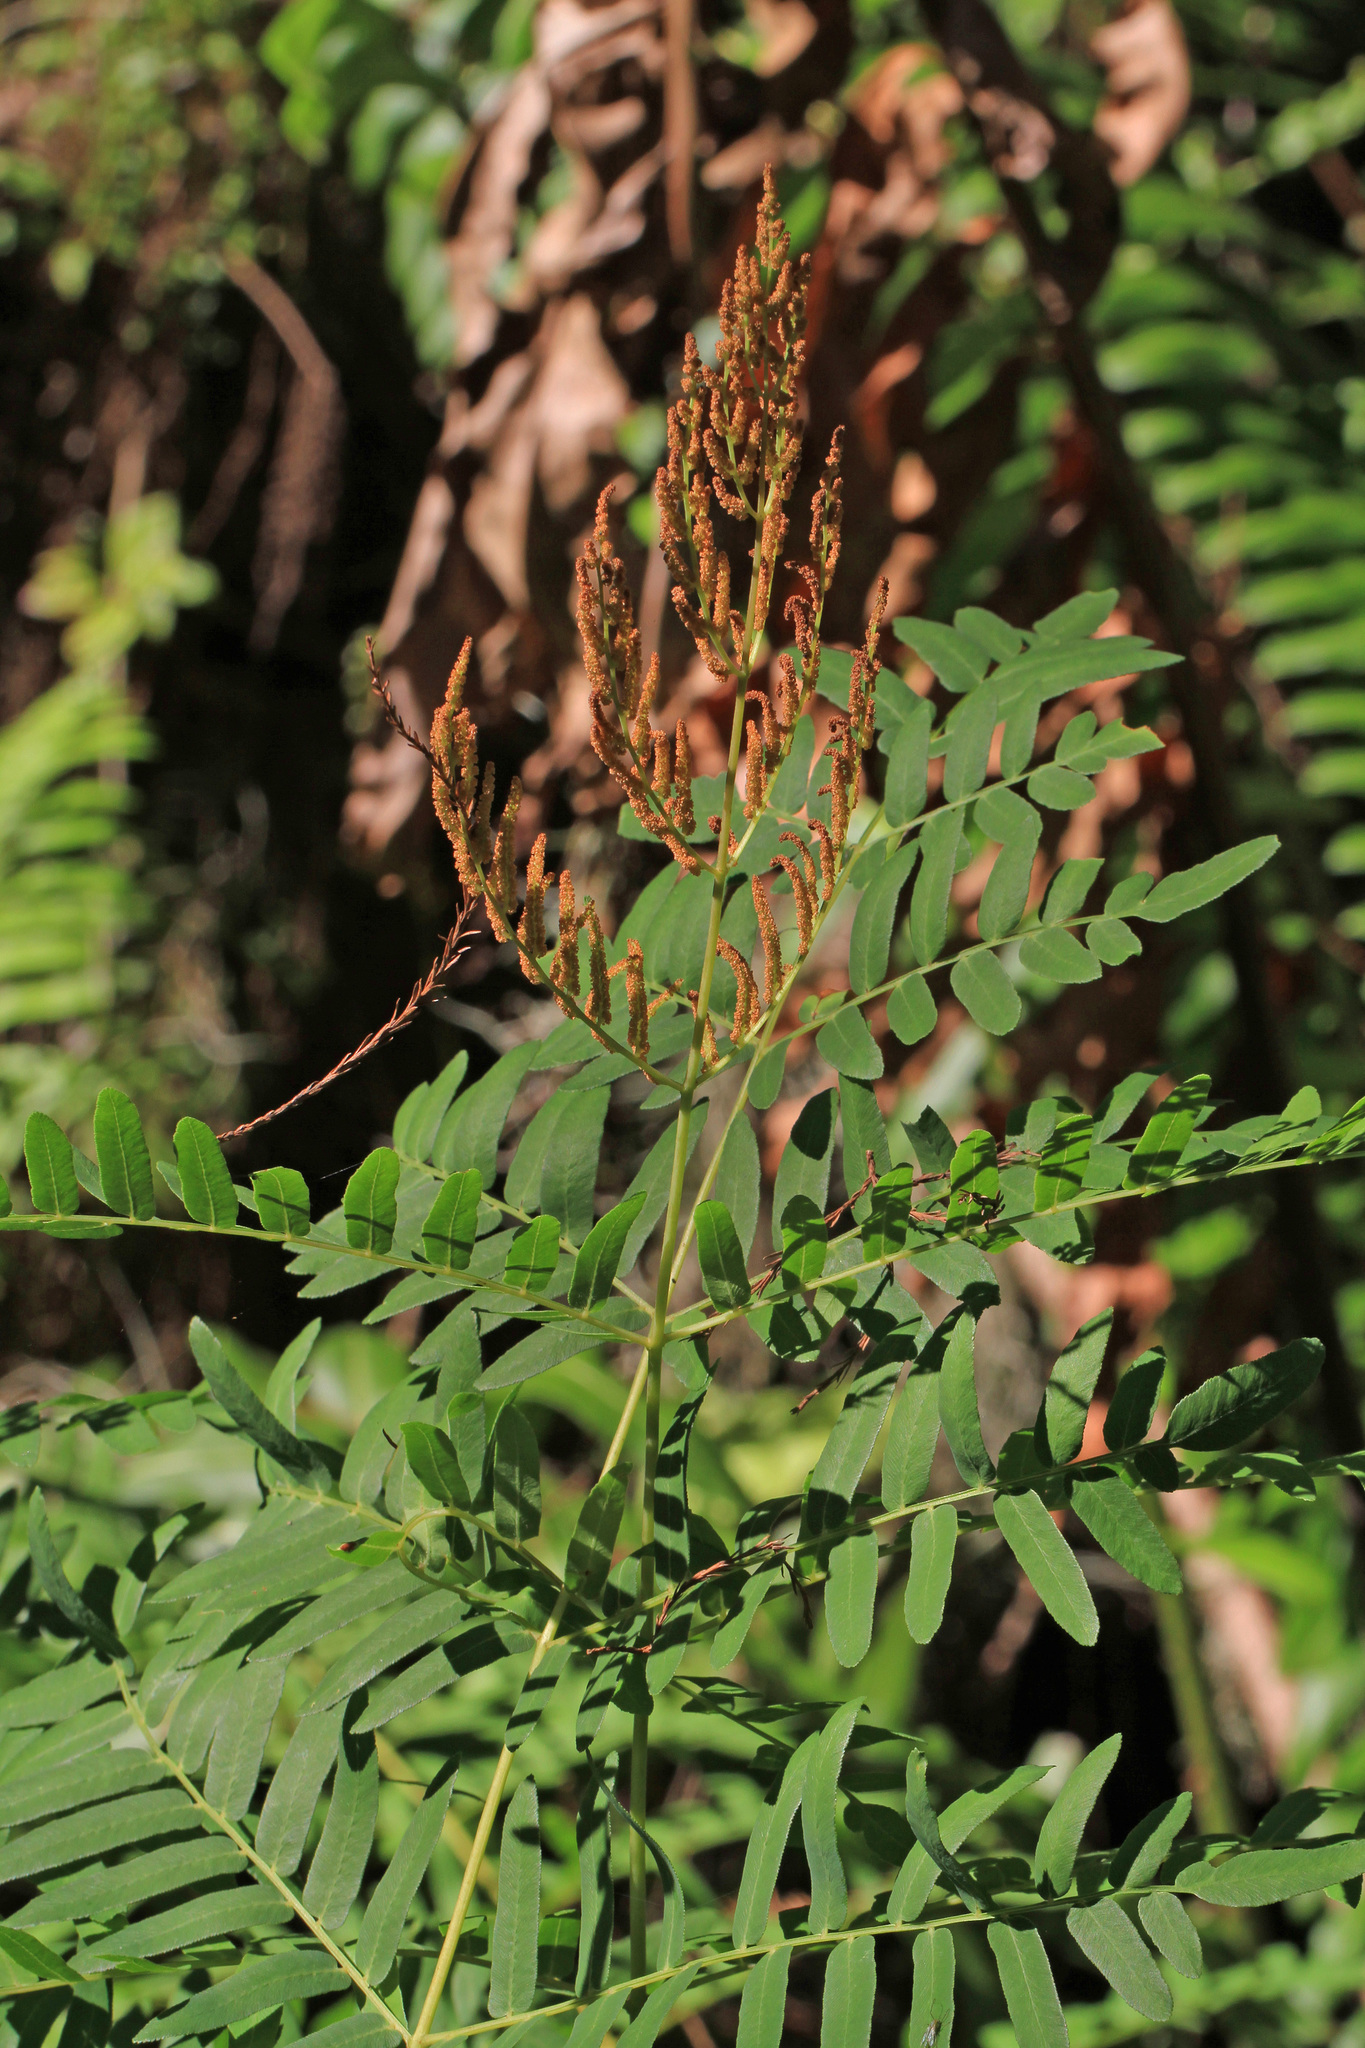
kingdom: Plantae
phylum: Tracheophyta
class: Polypodiopsida
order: Osmundales
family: Osmundaceae
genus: Osmunda
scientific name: Osmunda spectabilis
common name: American royal fern
